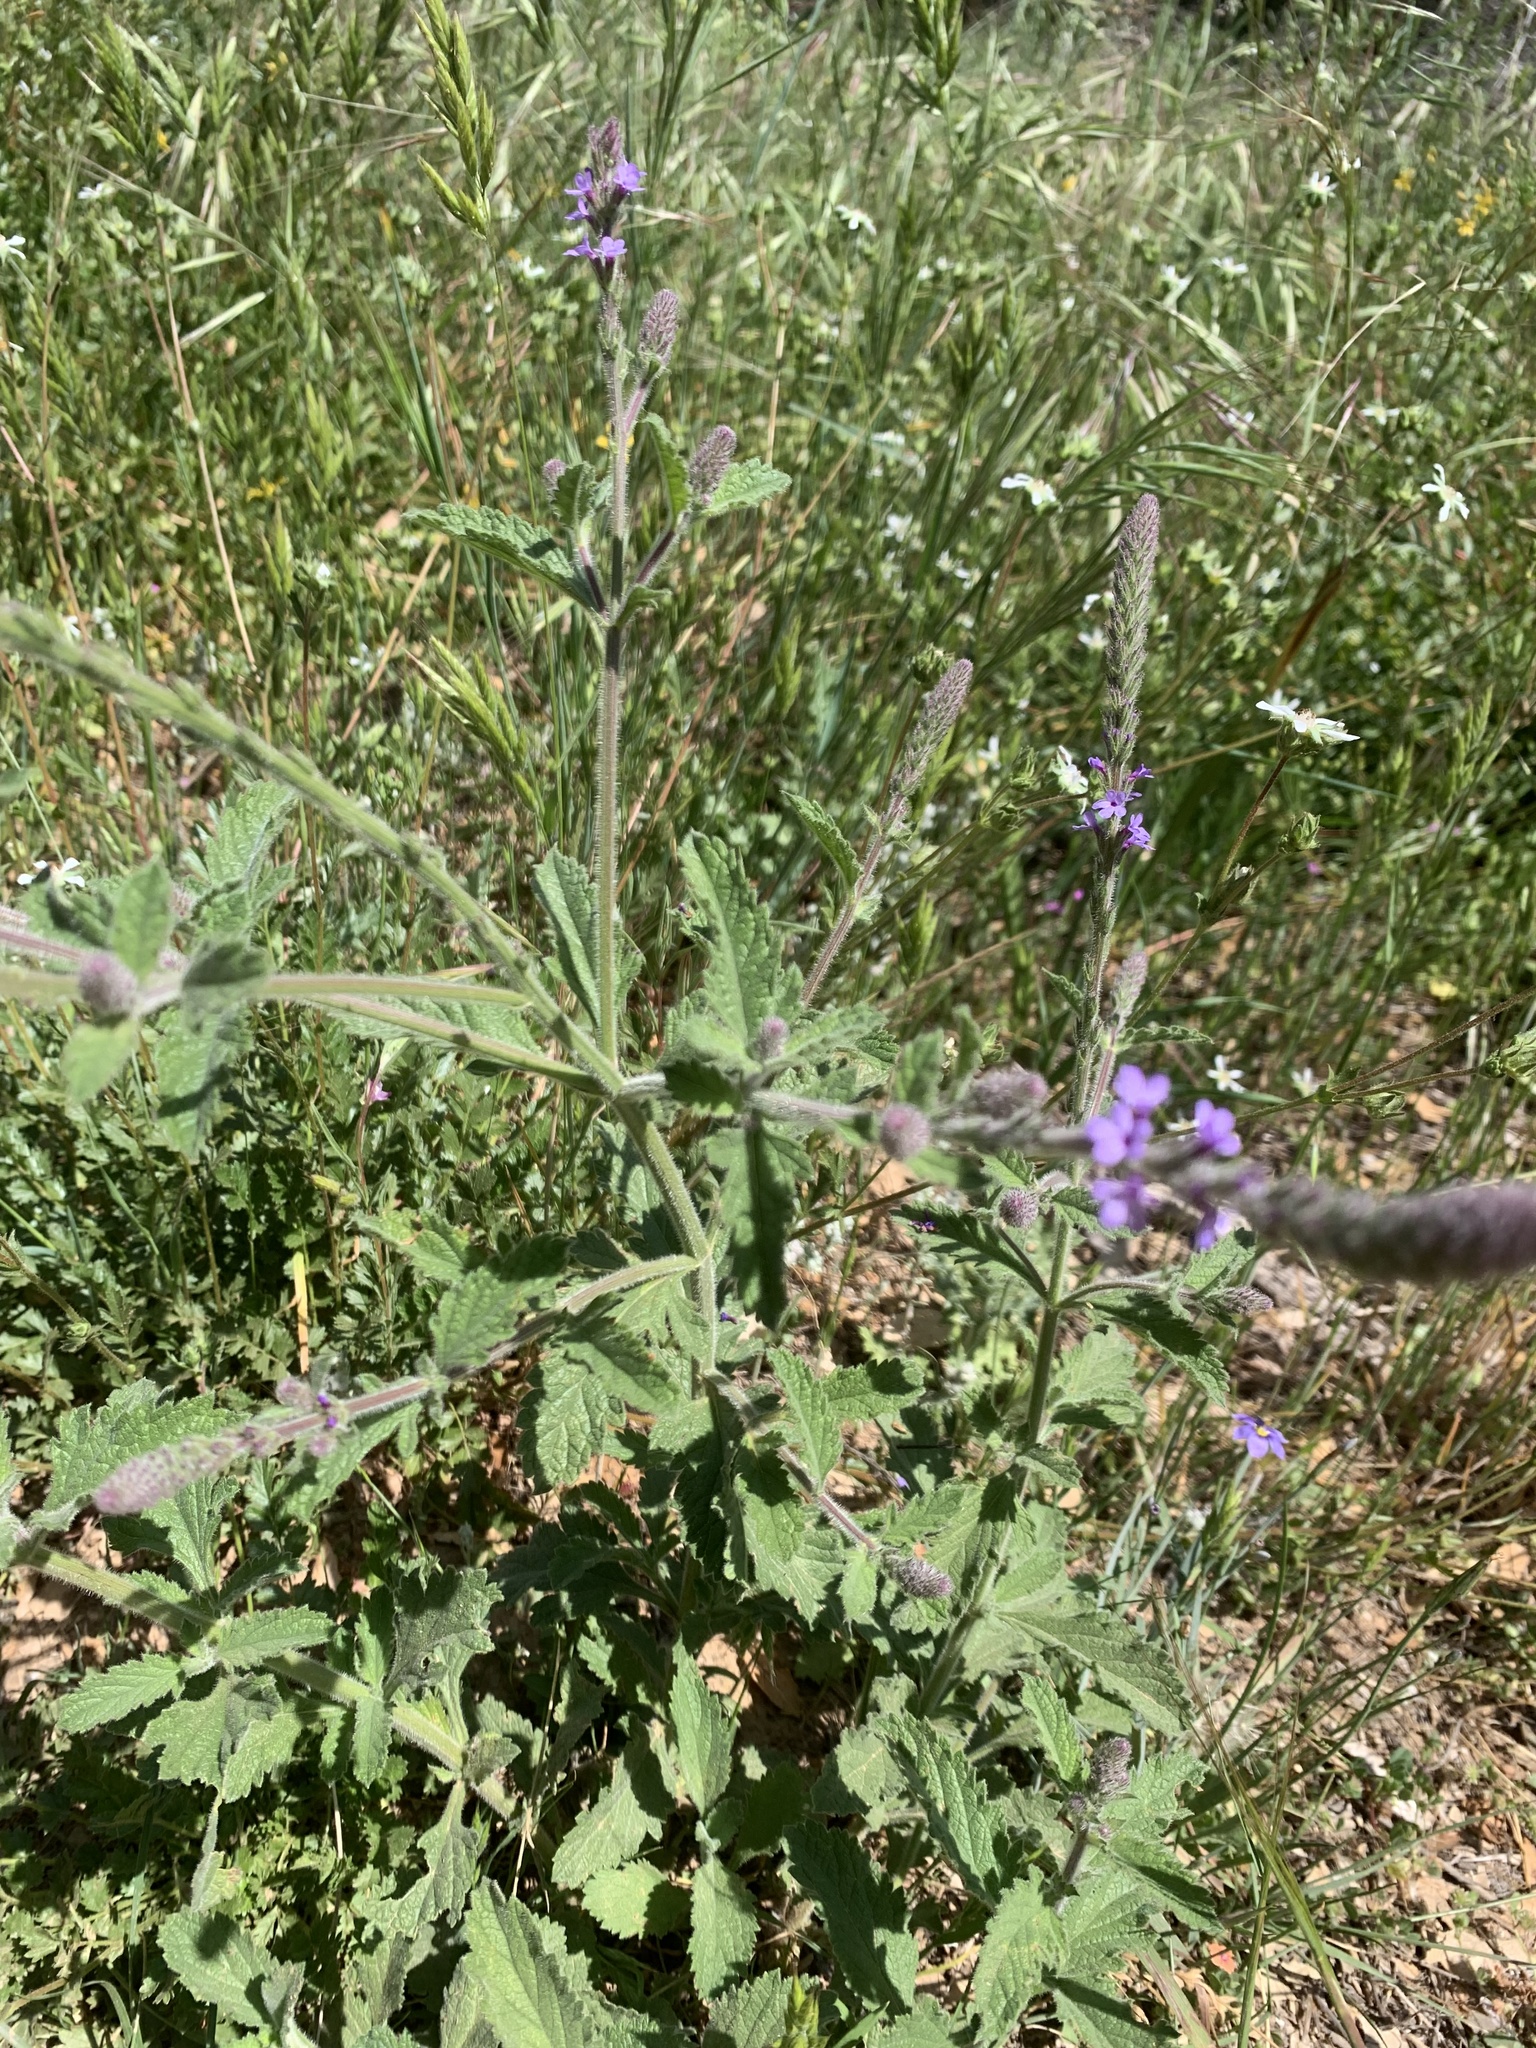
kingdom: Plantae
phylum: Tracheophyta
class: Liliopsida
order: Asparagales
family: Iridaceae
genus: Sisyrinchium
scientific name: Sisyrinchium bellum
